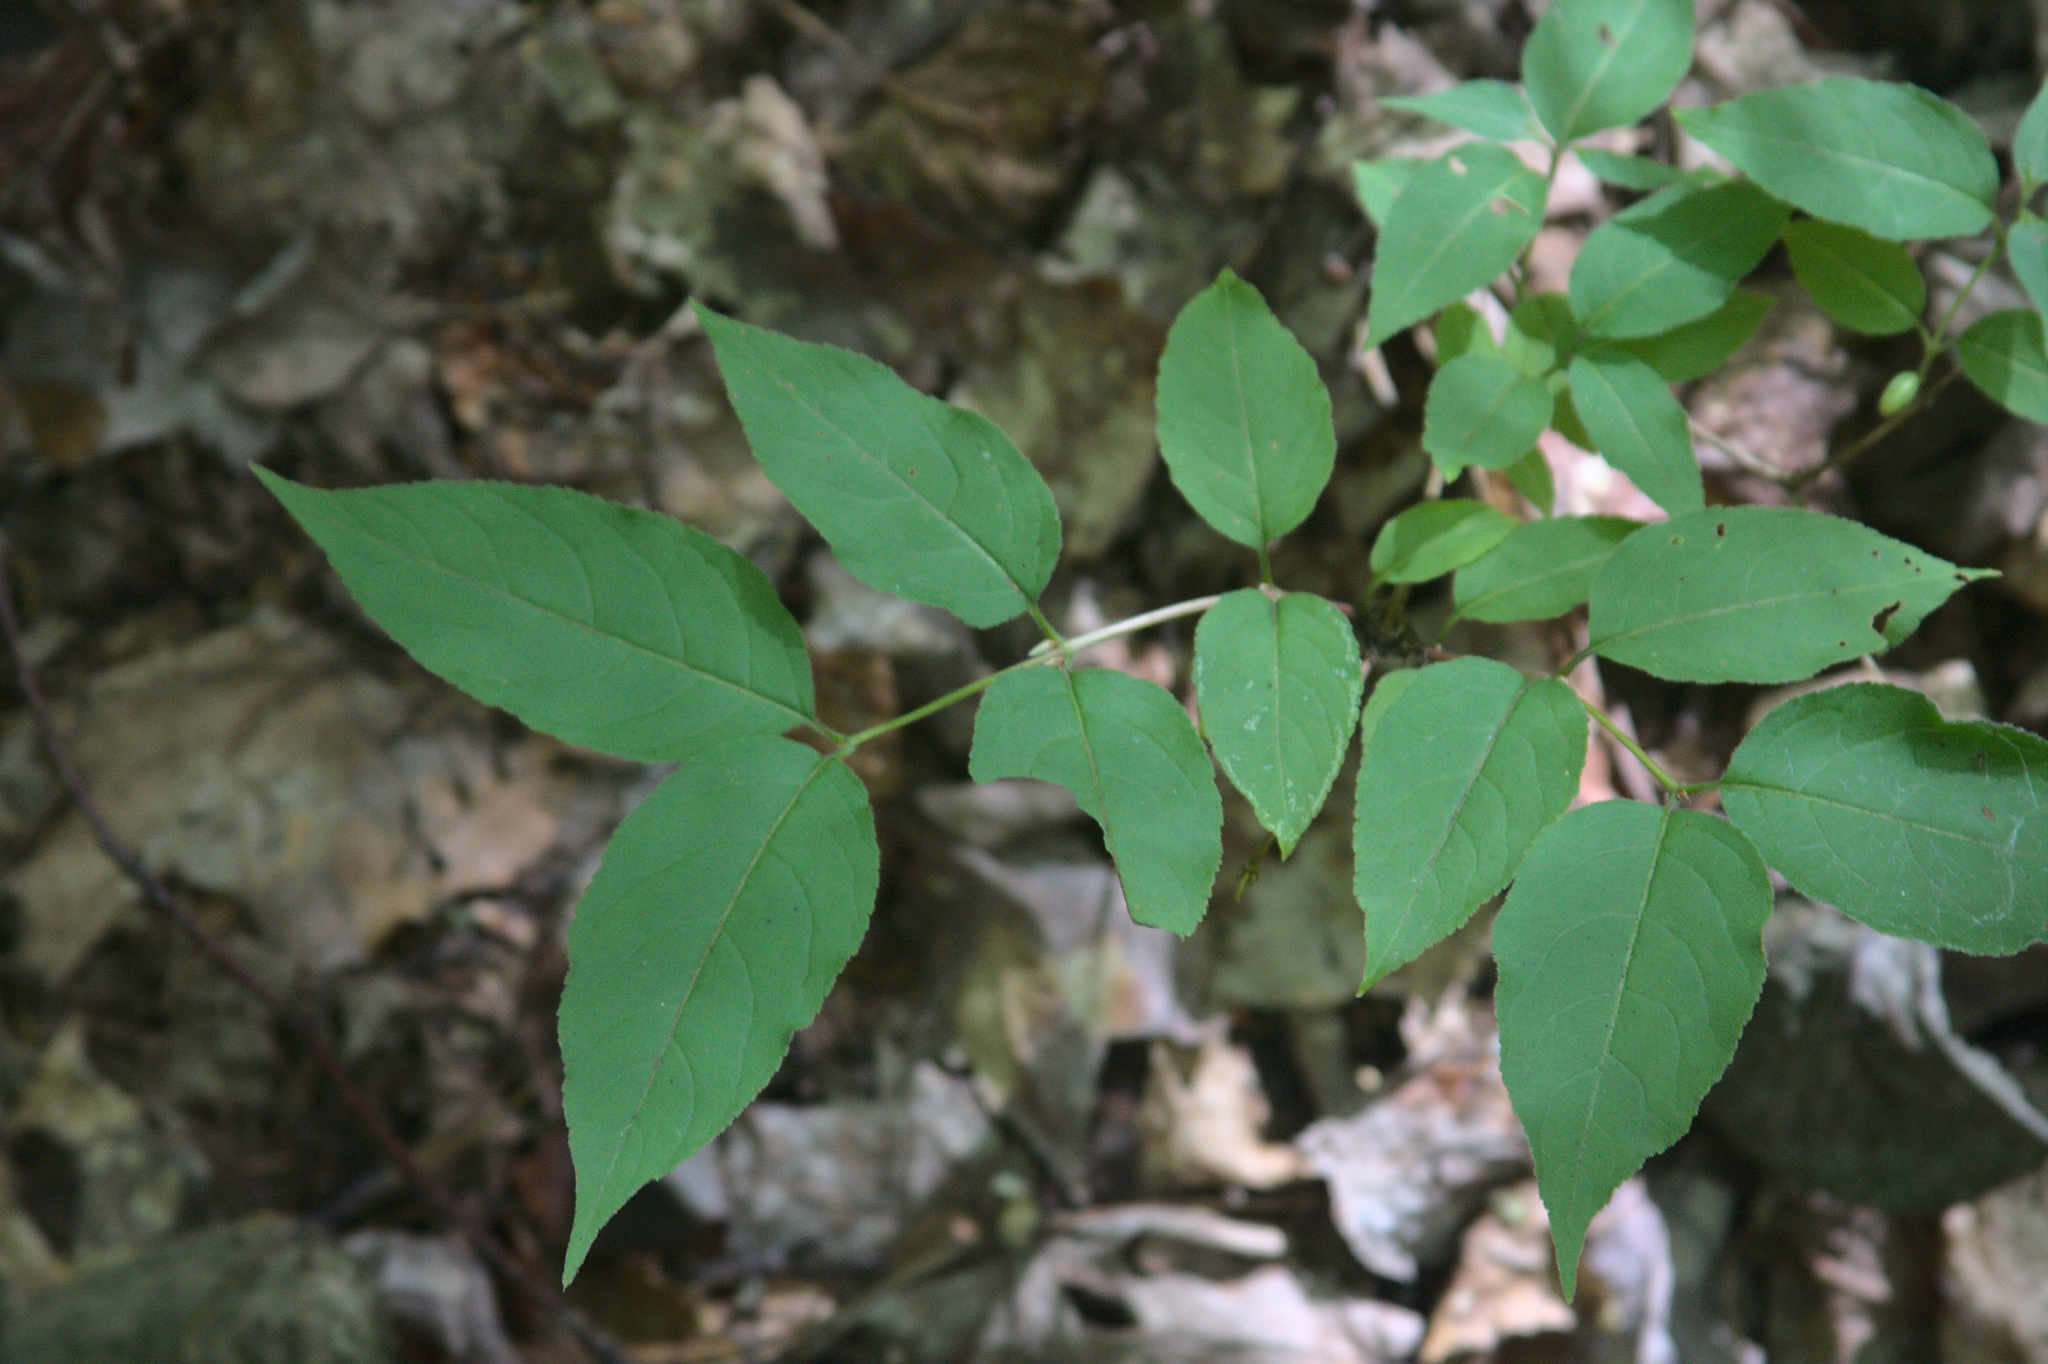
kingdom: Plantae
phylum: Tracheophyta
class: Magnoliopsida
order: Dipsacales
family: Caprifoliaceae
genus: Diervilla
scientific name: Diervilla lonicera
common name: Bush-honeysuckle
